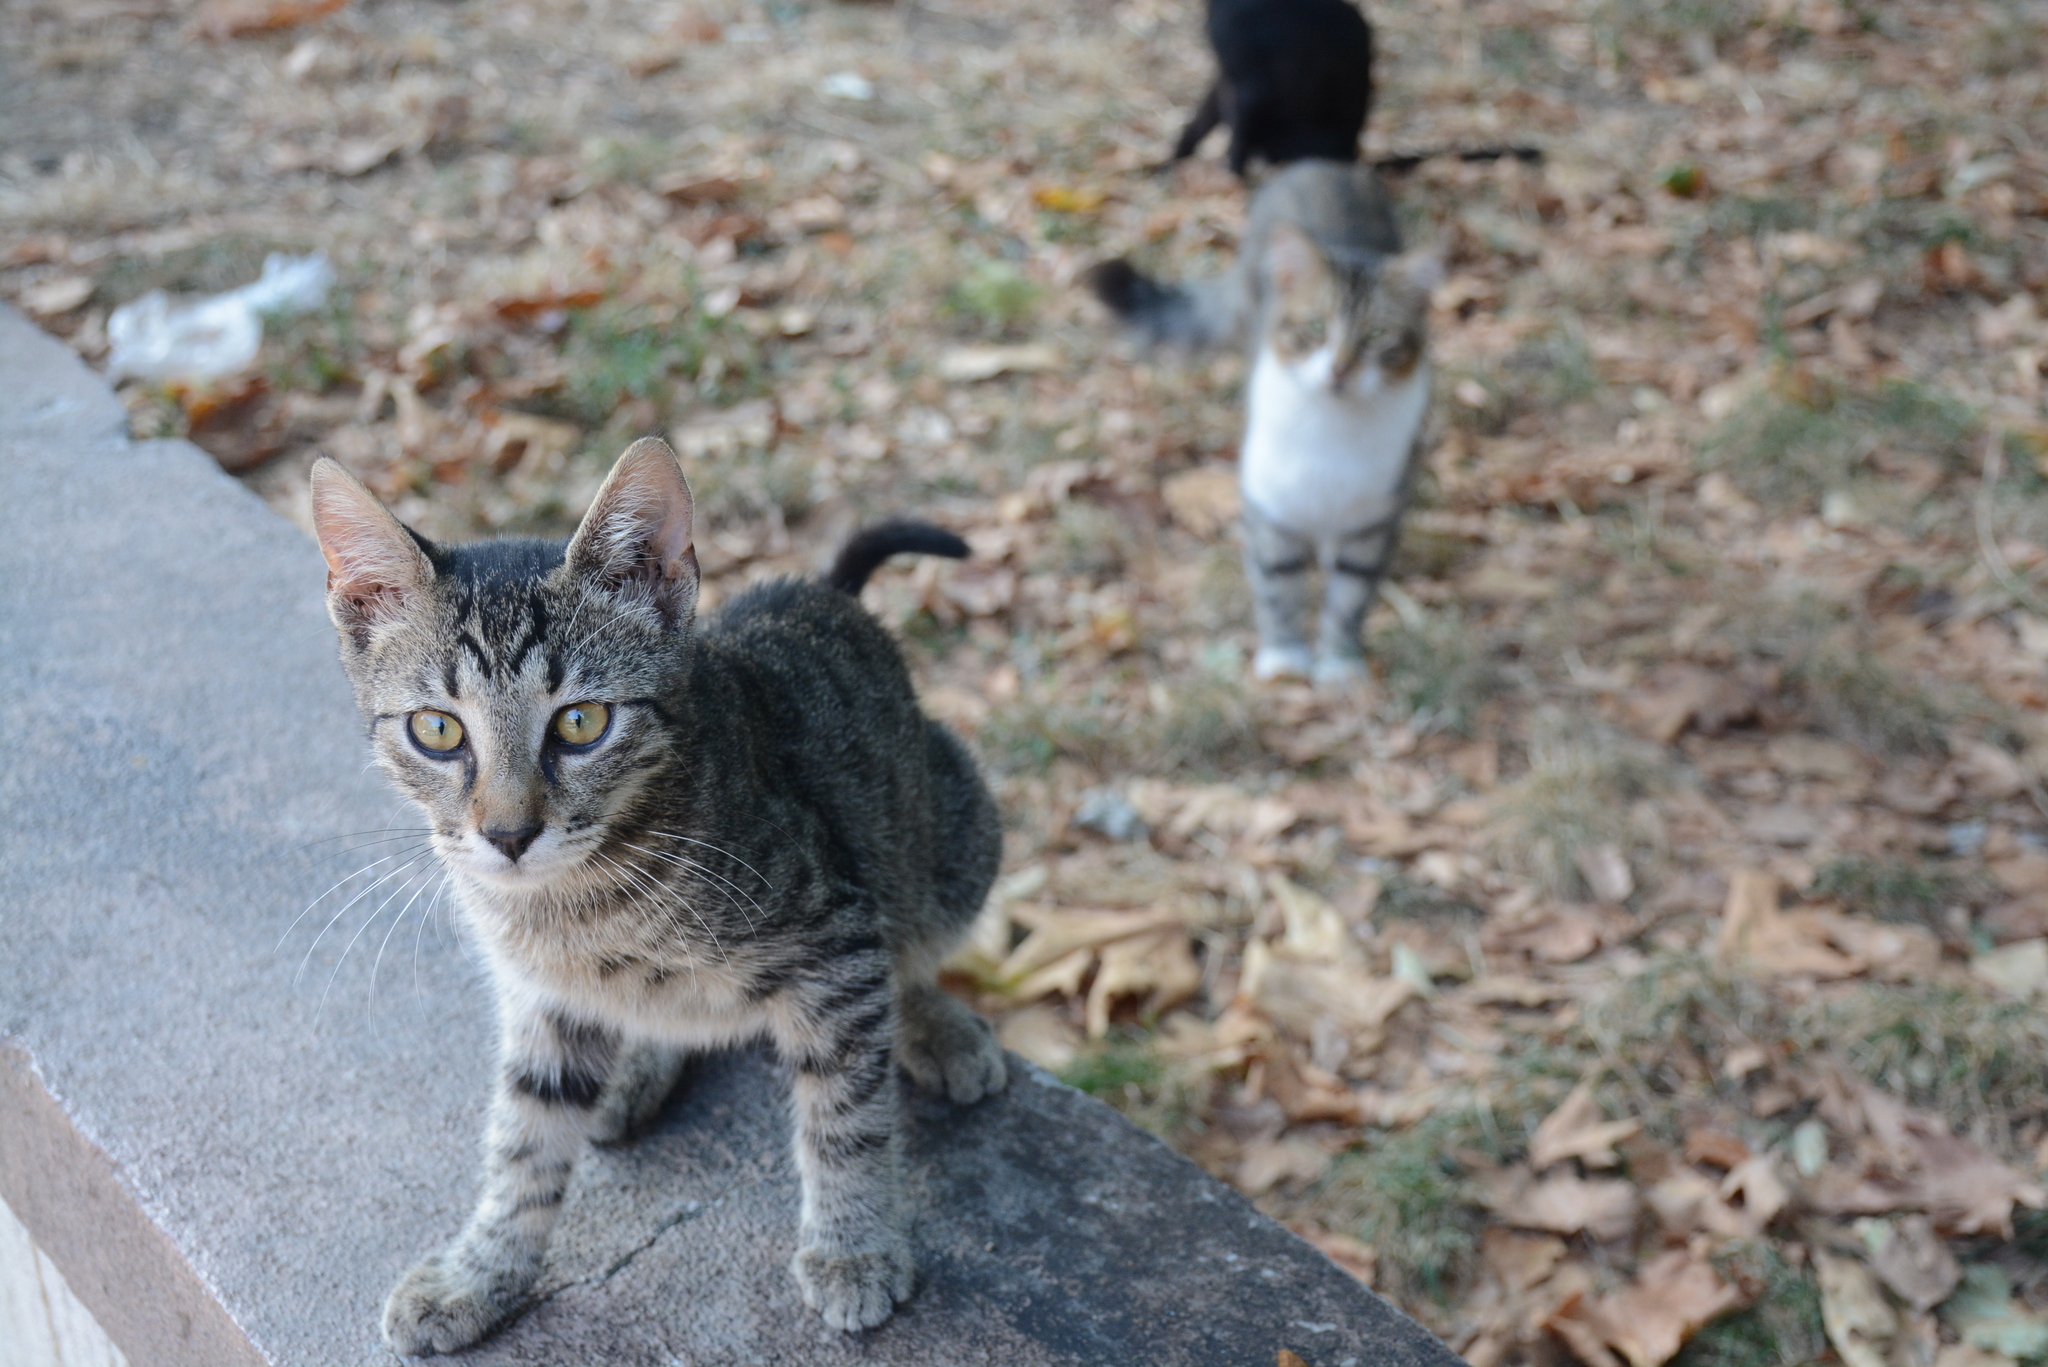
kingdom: Animalia
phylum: Chordata
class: Mammalia
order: Carnivora
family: Felidae
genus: Felis
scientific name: Felis catus
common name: Domestic cat
